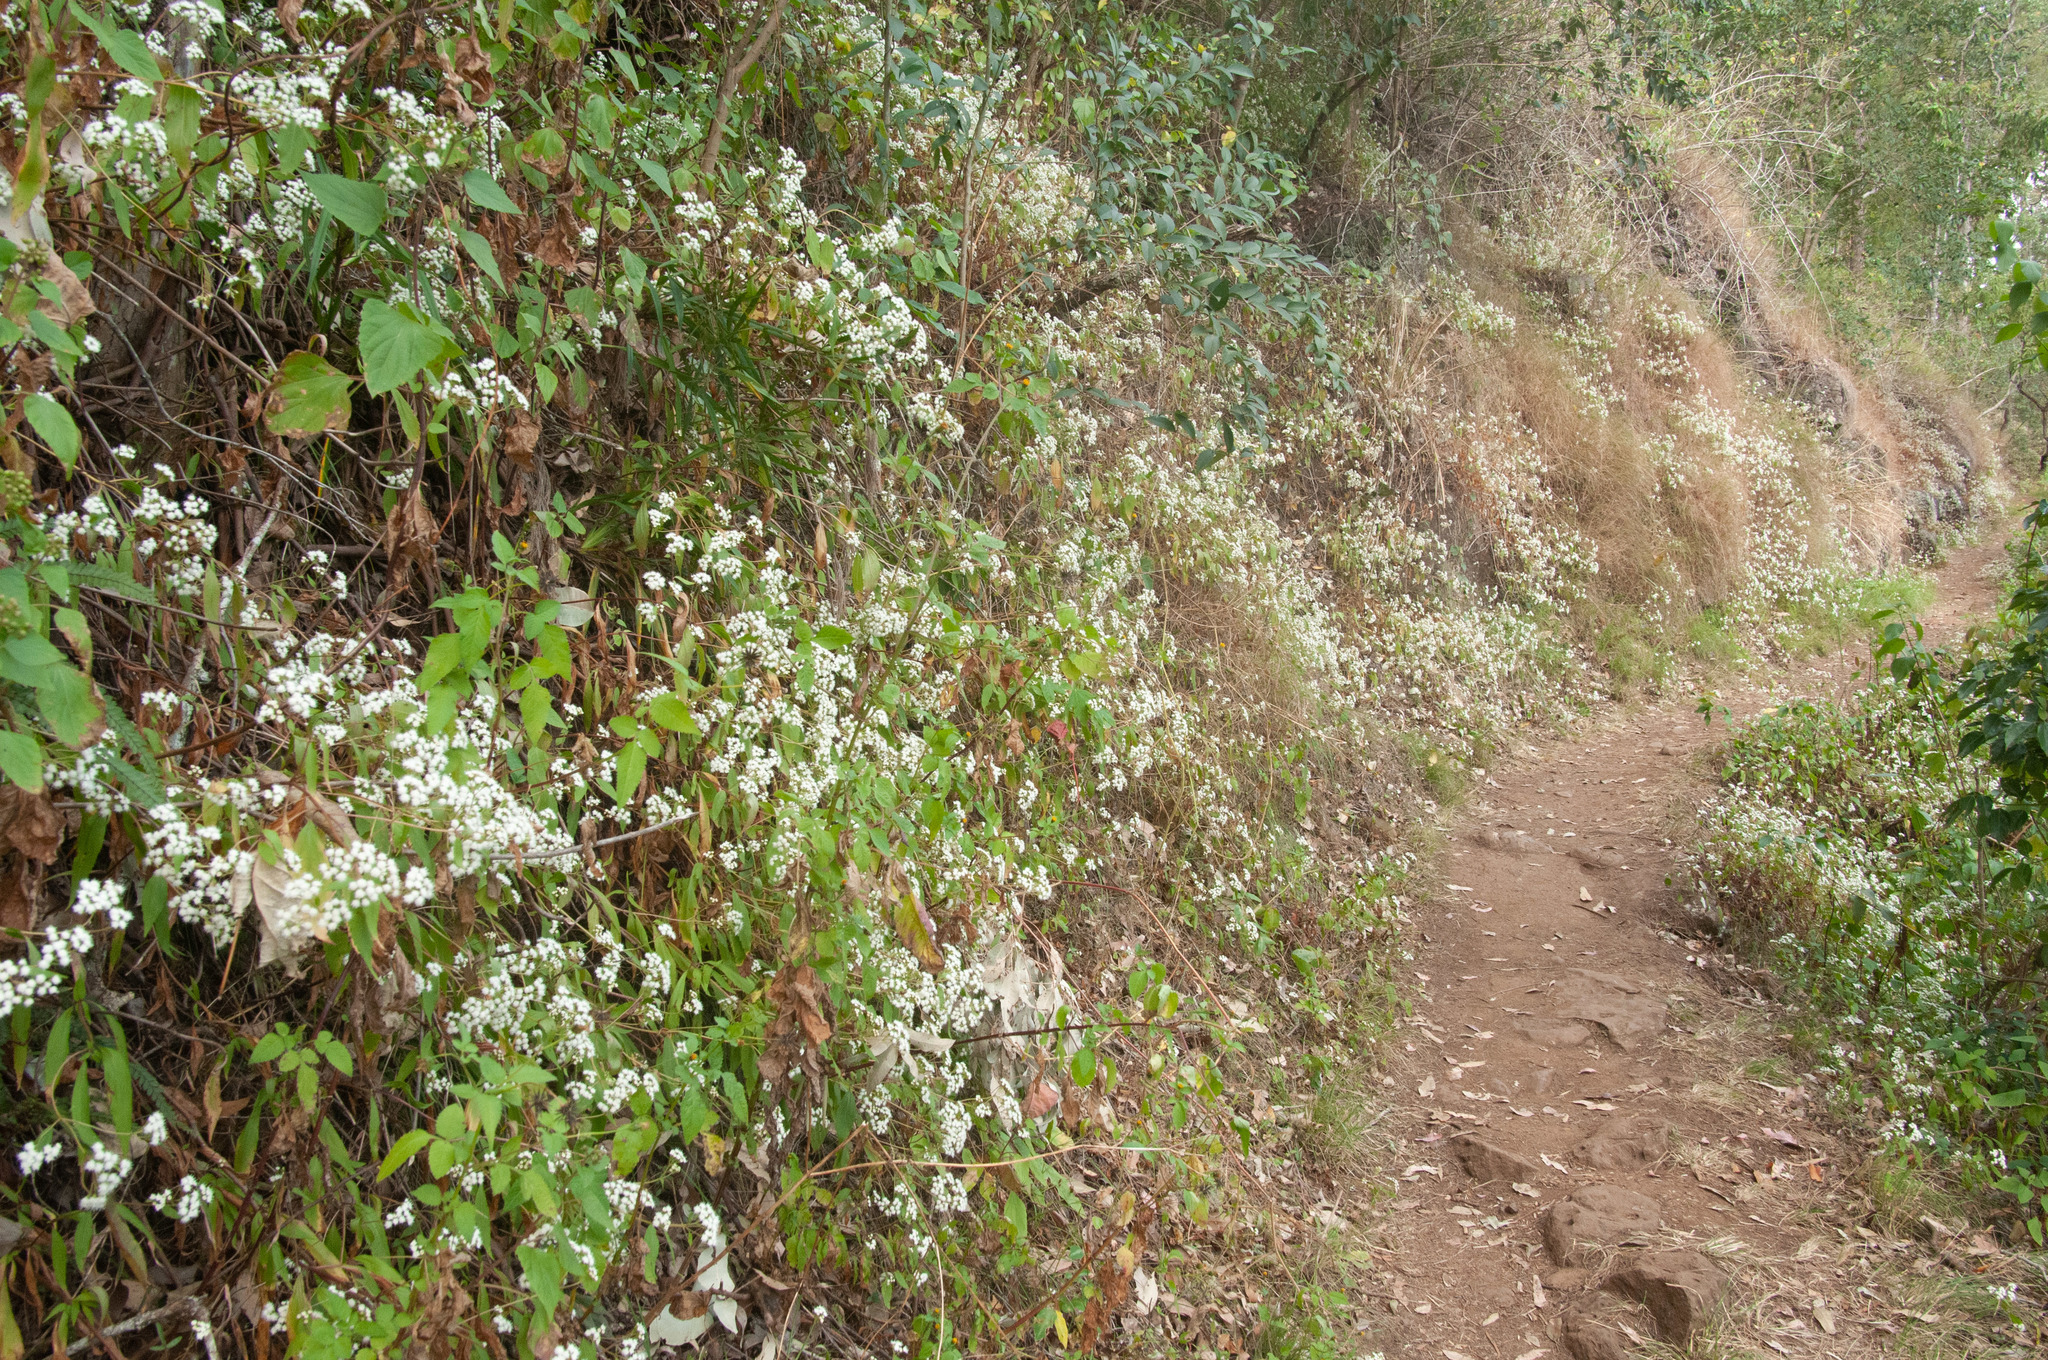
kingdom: Plantae
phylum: Tracheophyta
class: Magnoliopsida
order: Asterales
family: Asteraceae
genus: Ageratina
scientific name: Ageratina riparia
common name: Creeping croftonweed
